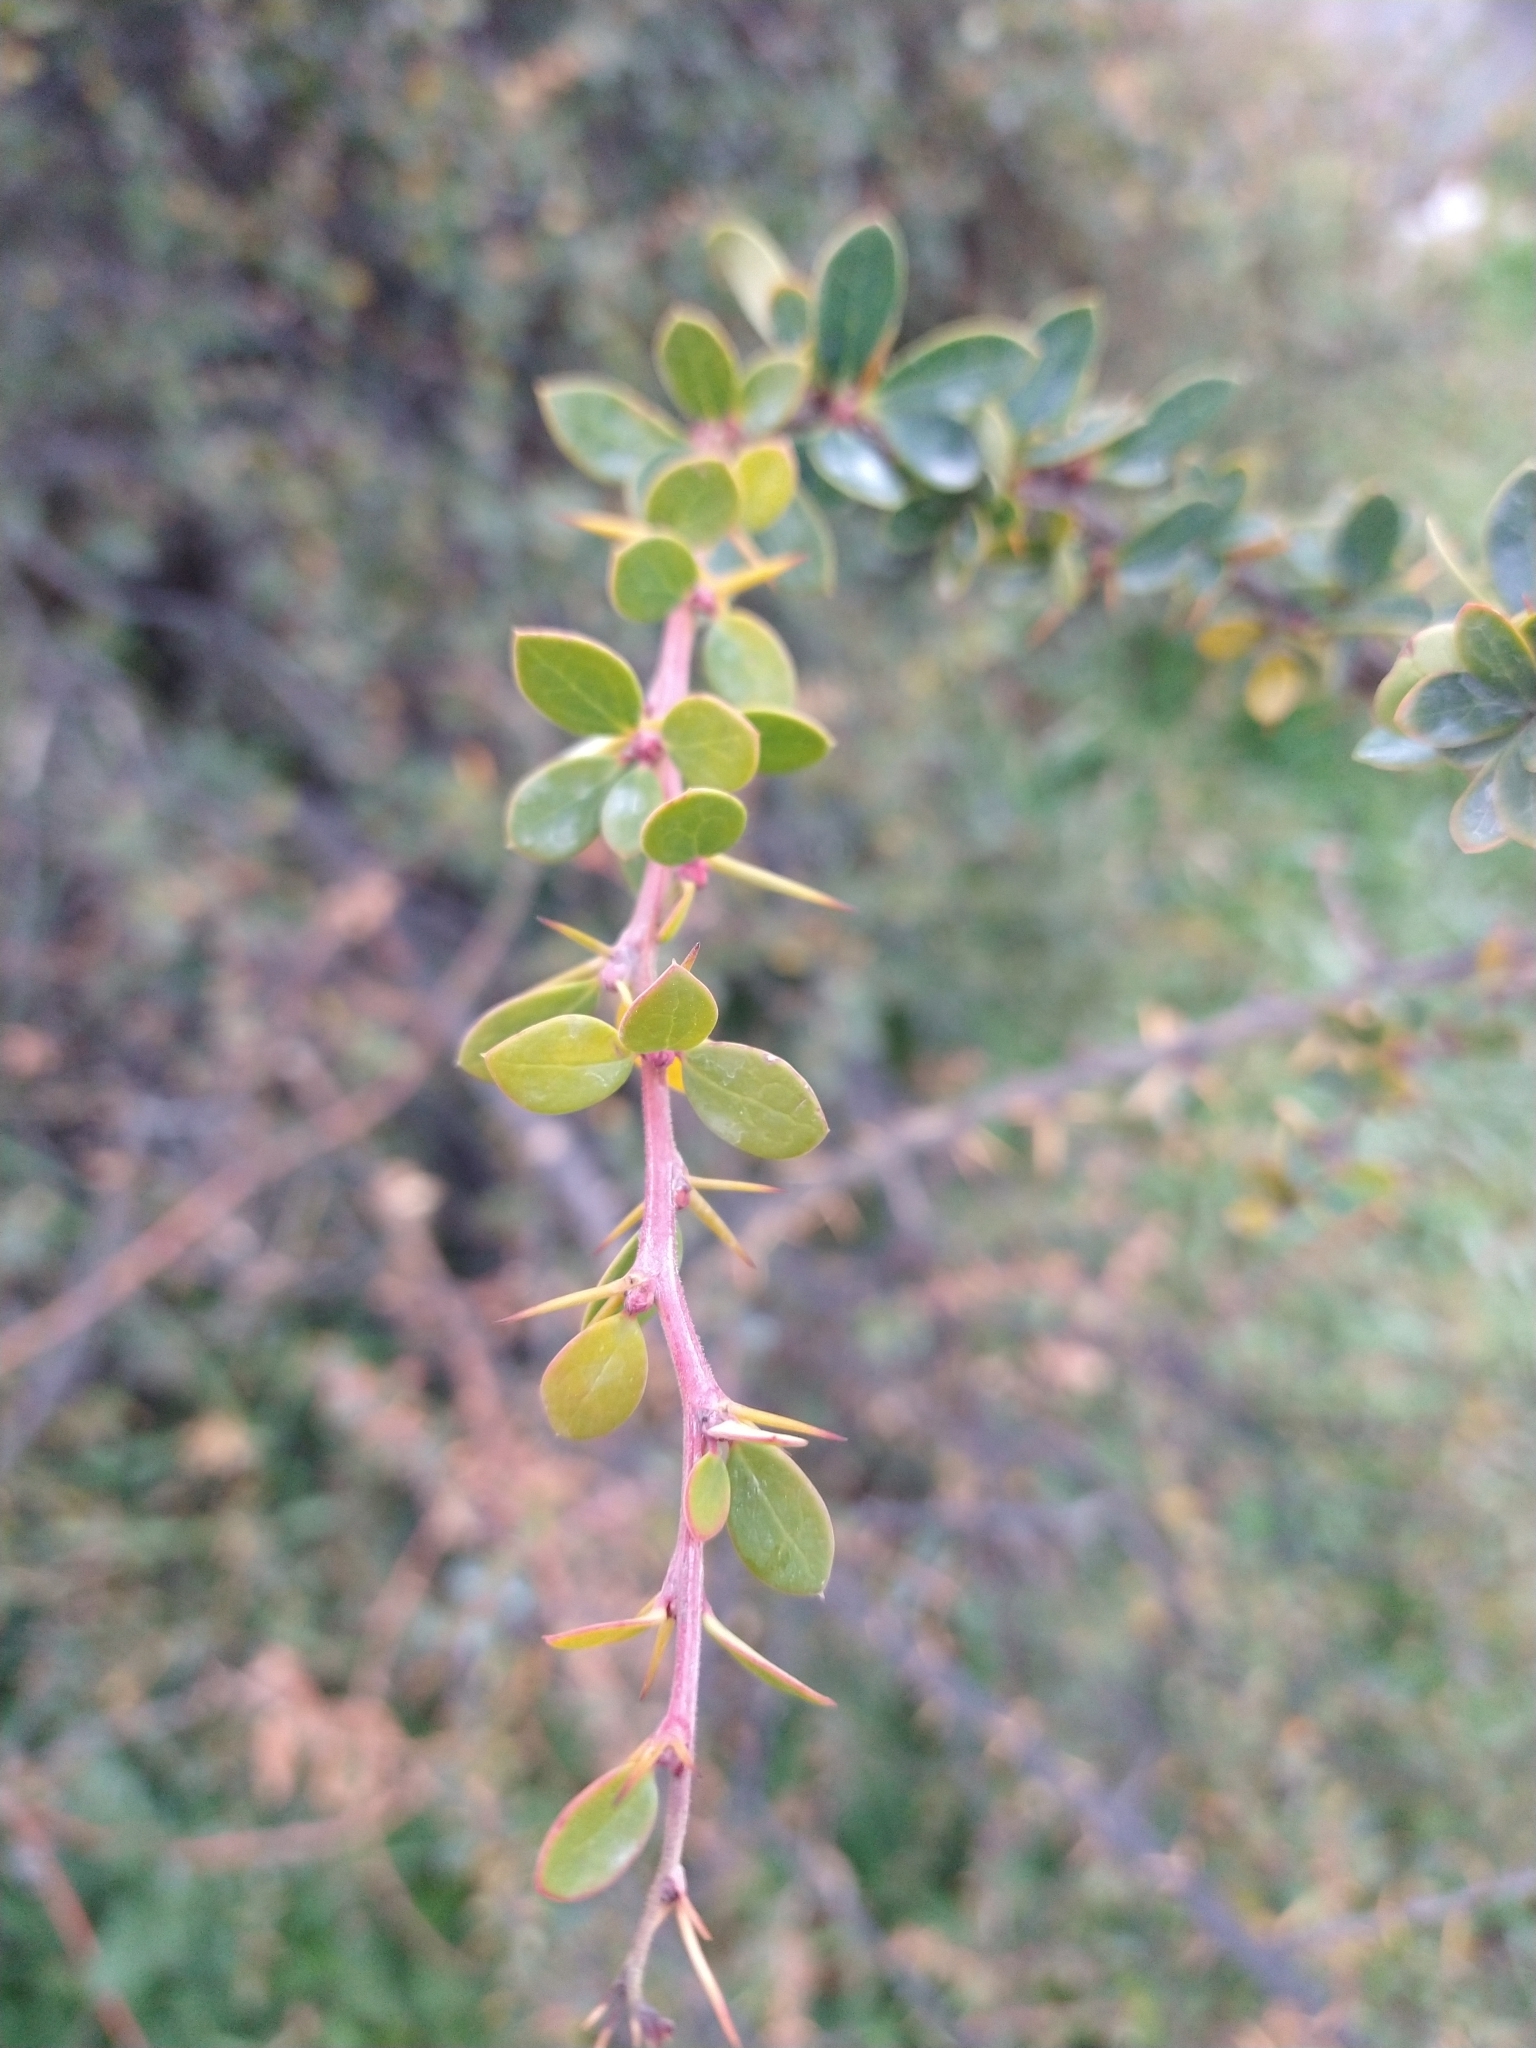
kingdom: Plantae
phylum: Tracheophyta
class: Magnoliopsida
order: Ranunculales
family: Berberidaceae
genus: Berberis
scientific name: Berberis microphylla
